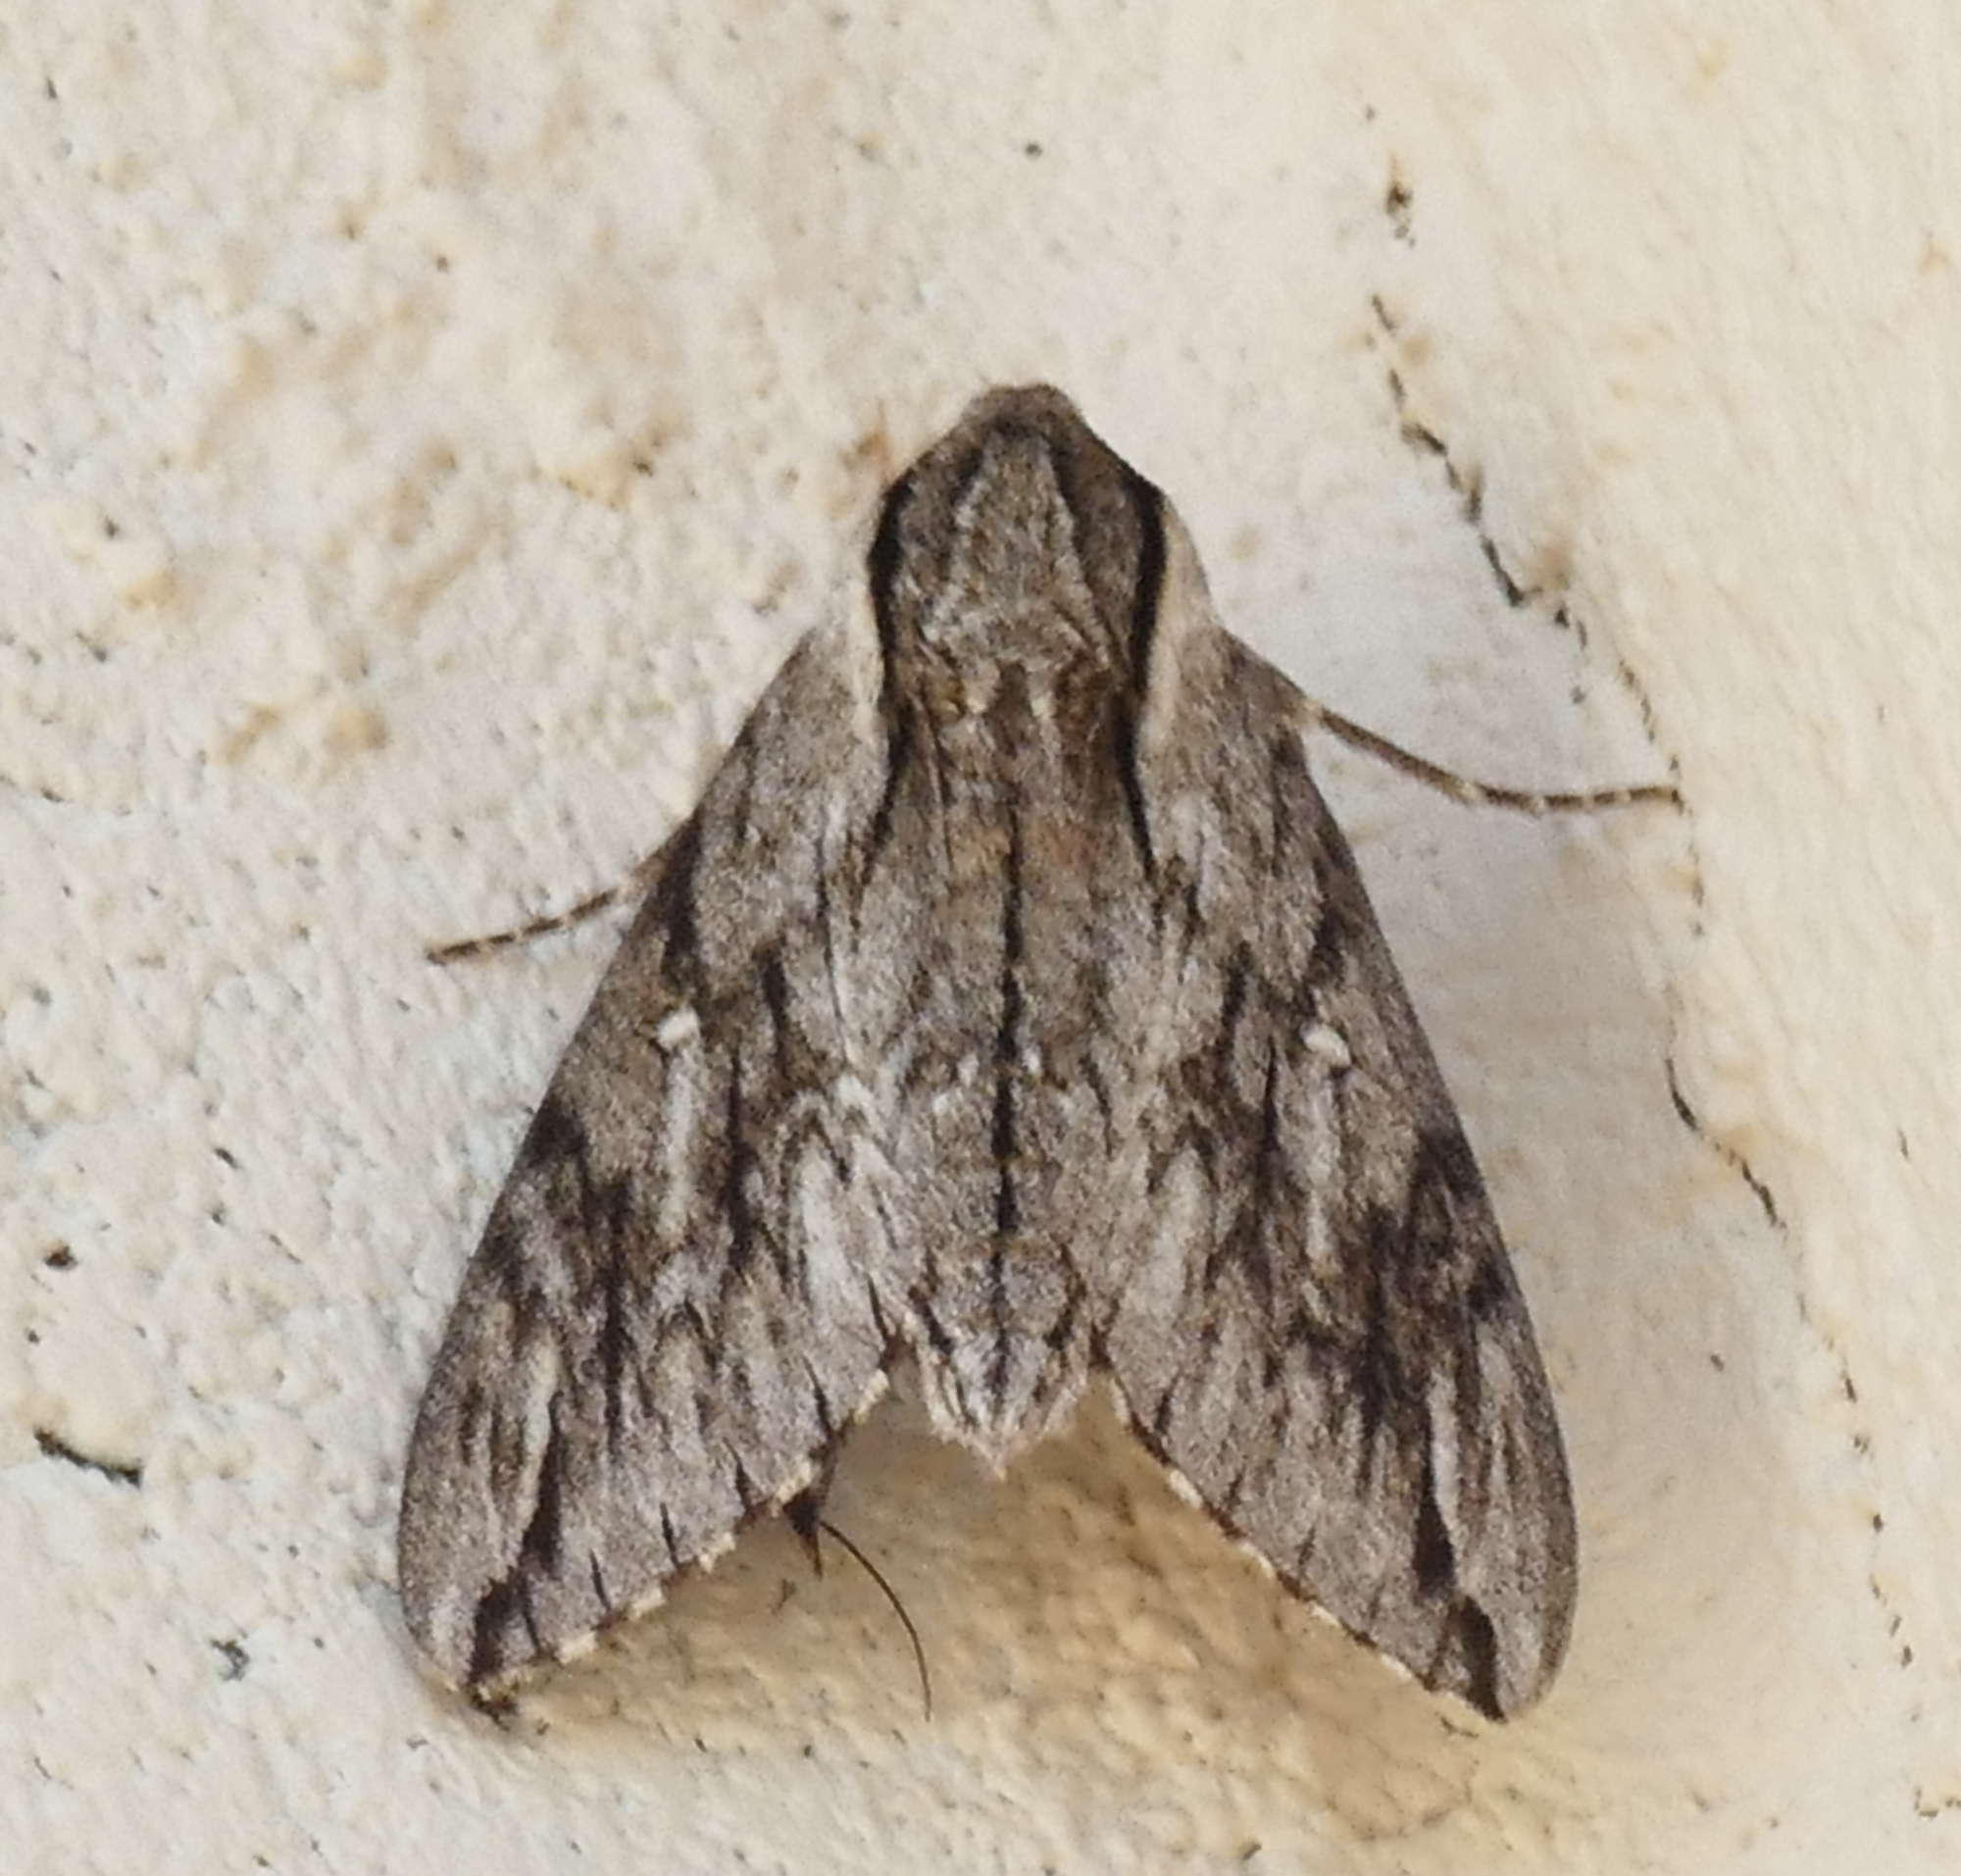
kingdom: Animalia
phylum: Arthropoda
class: Insecta
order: Lepidoptera
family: Sphingidae
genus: Paratrea
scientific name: Paratrea plebeja
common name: Plebian sphinx
